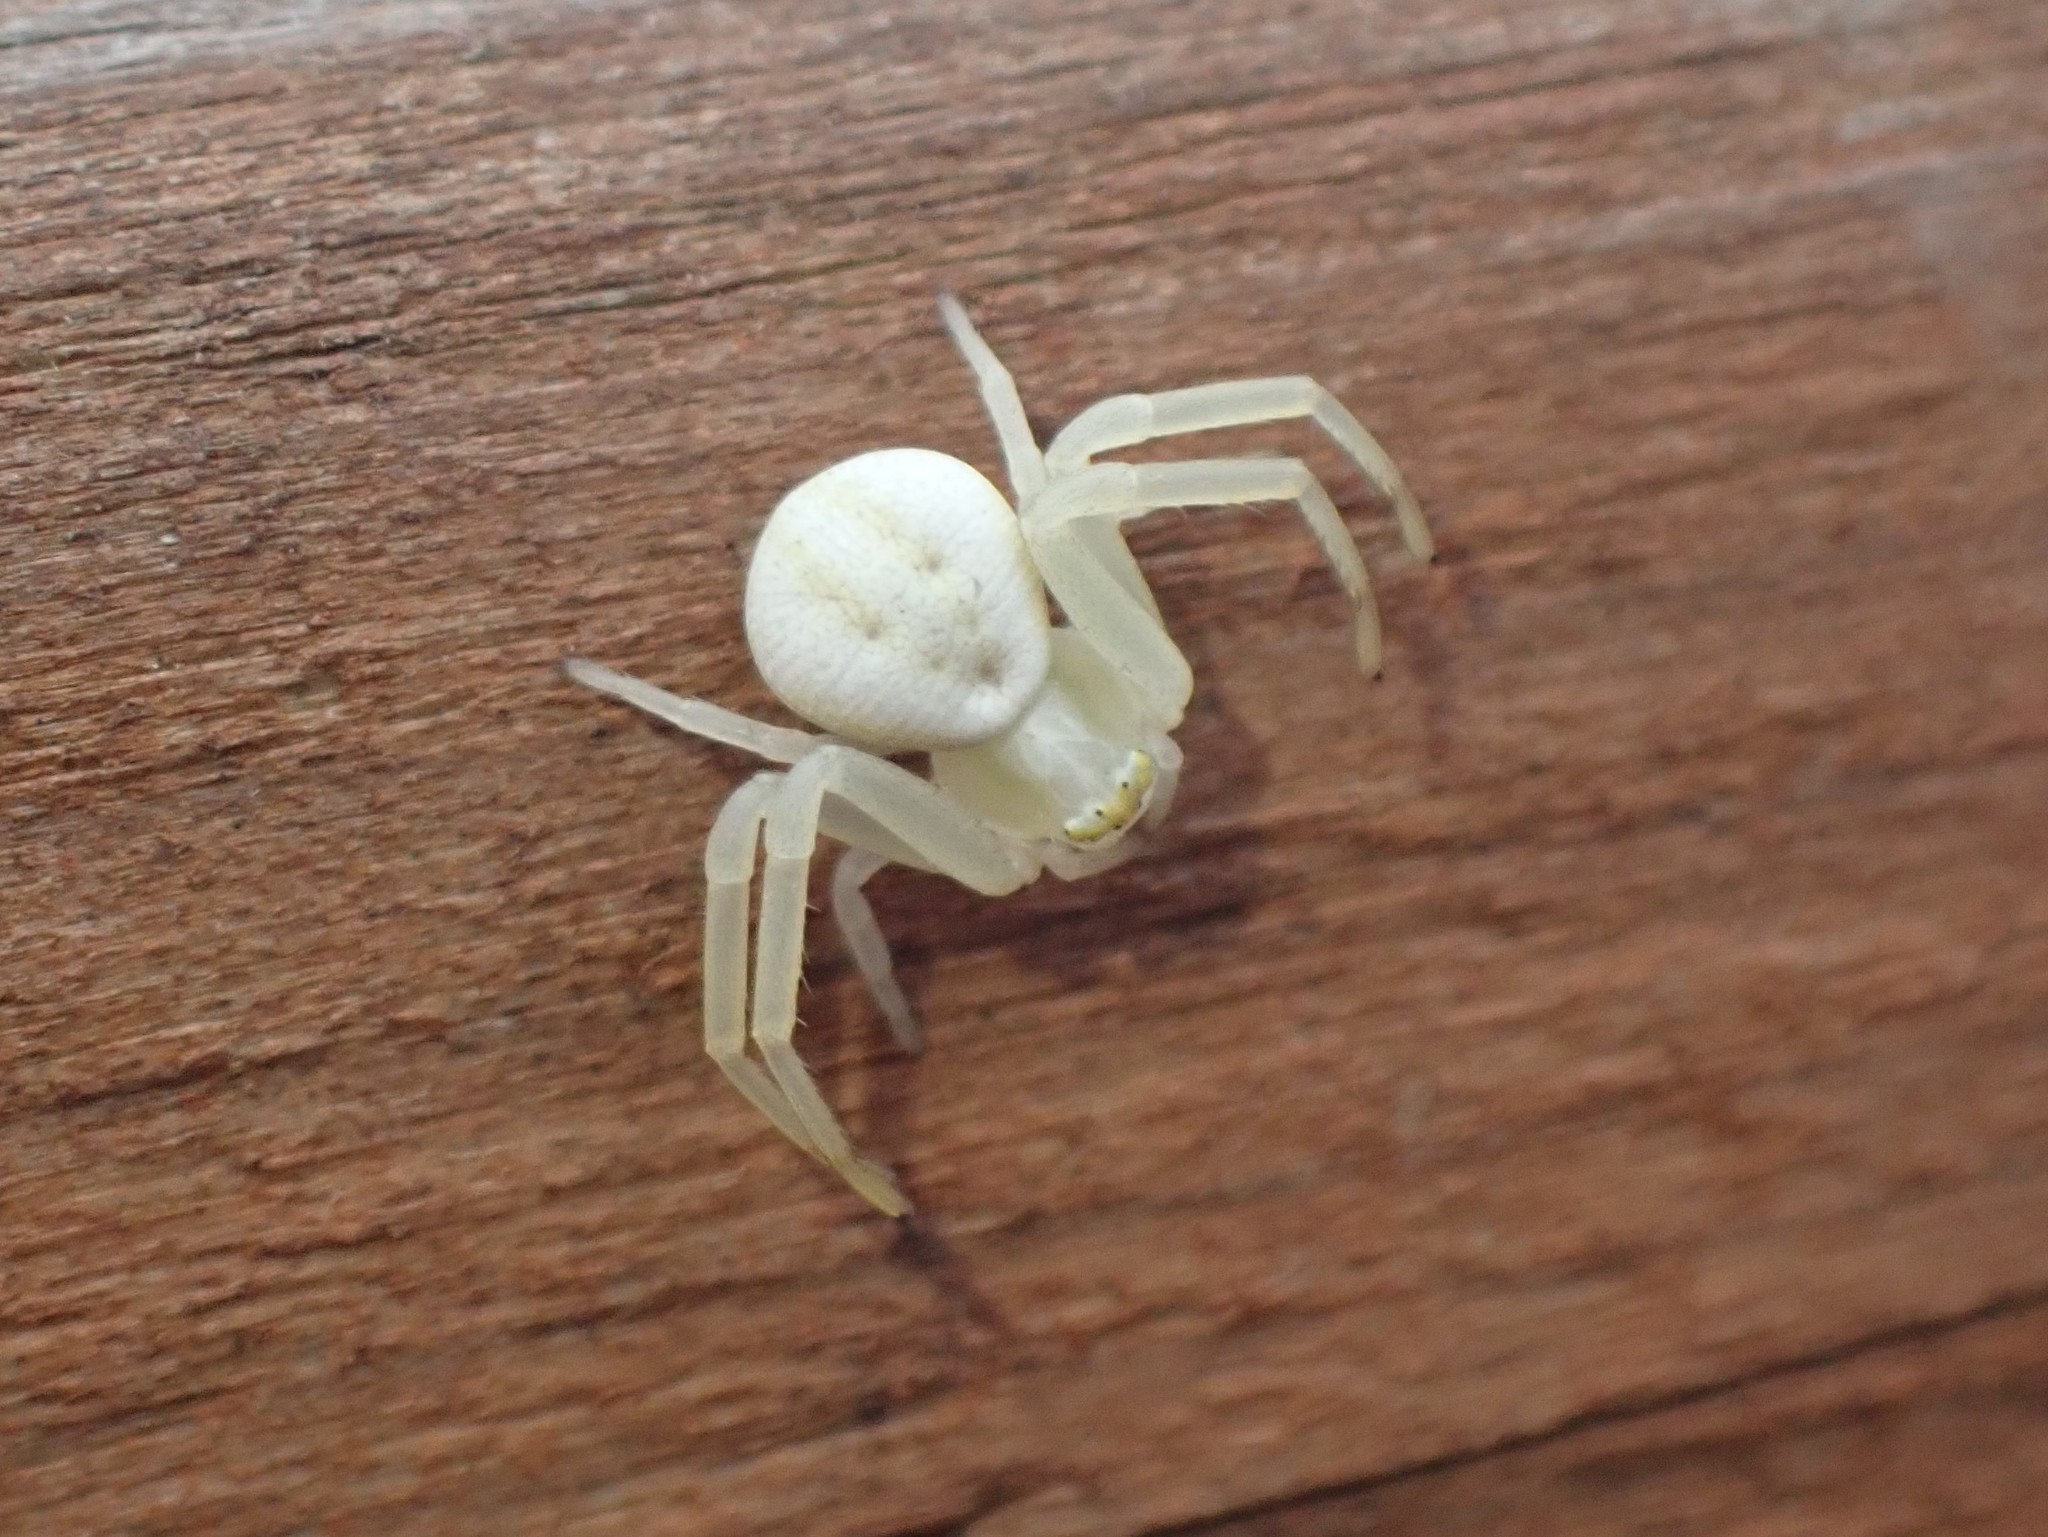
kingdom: Animalia
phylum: Arthropoda
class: Arachnida
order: Araneae
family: Thomisidae
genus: Misumena
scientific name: Misumena vatia
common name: Goldenrod crab spider
